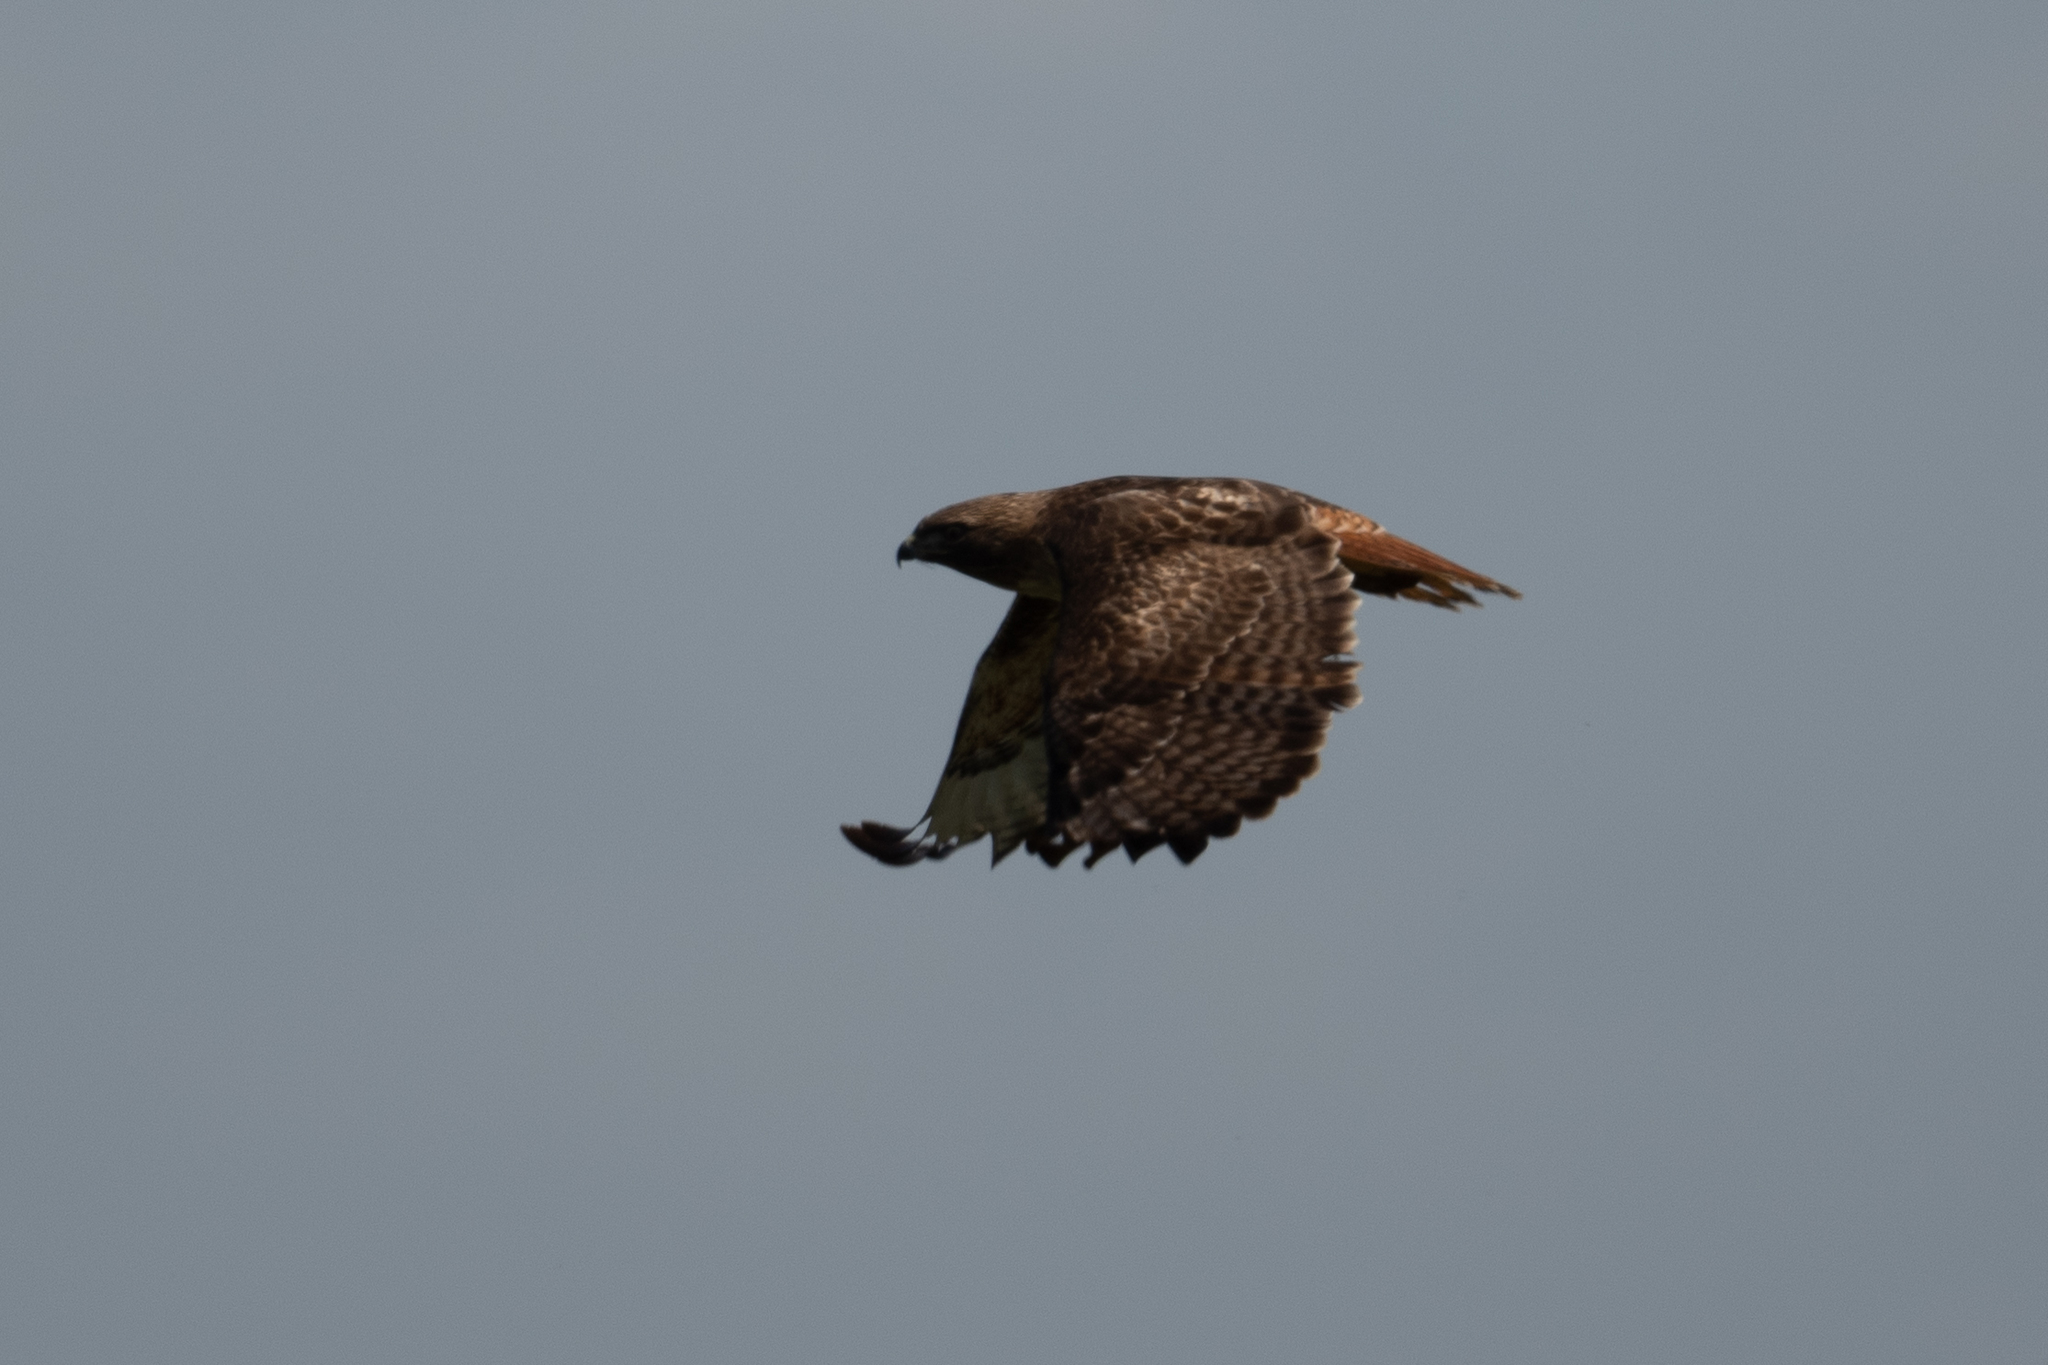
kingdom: Animalia
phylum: Chordata
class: Aves
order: Accipitriformes
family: Accipitridae
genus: Buteo
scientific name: Buteo jamaicensis
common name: Red-tailed hawk
